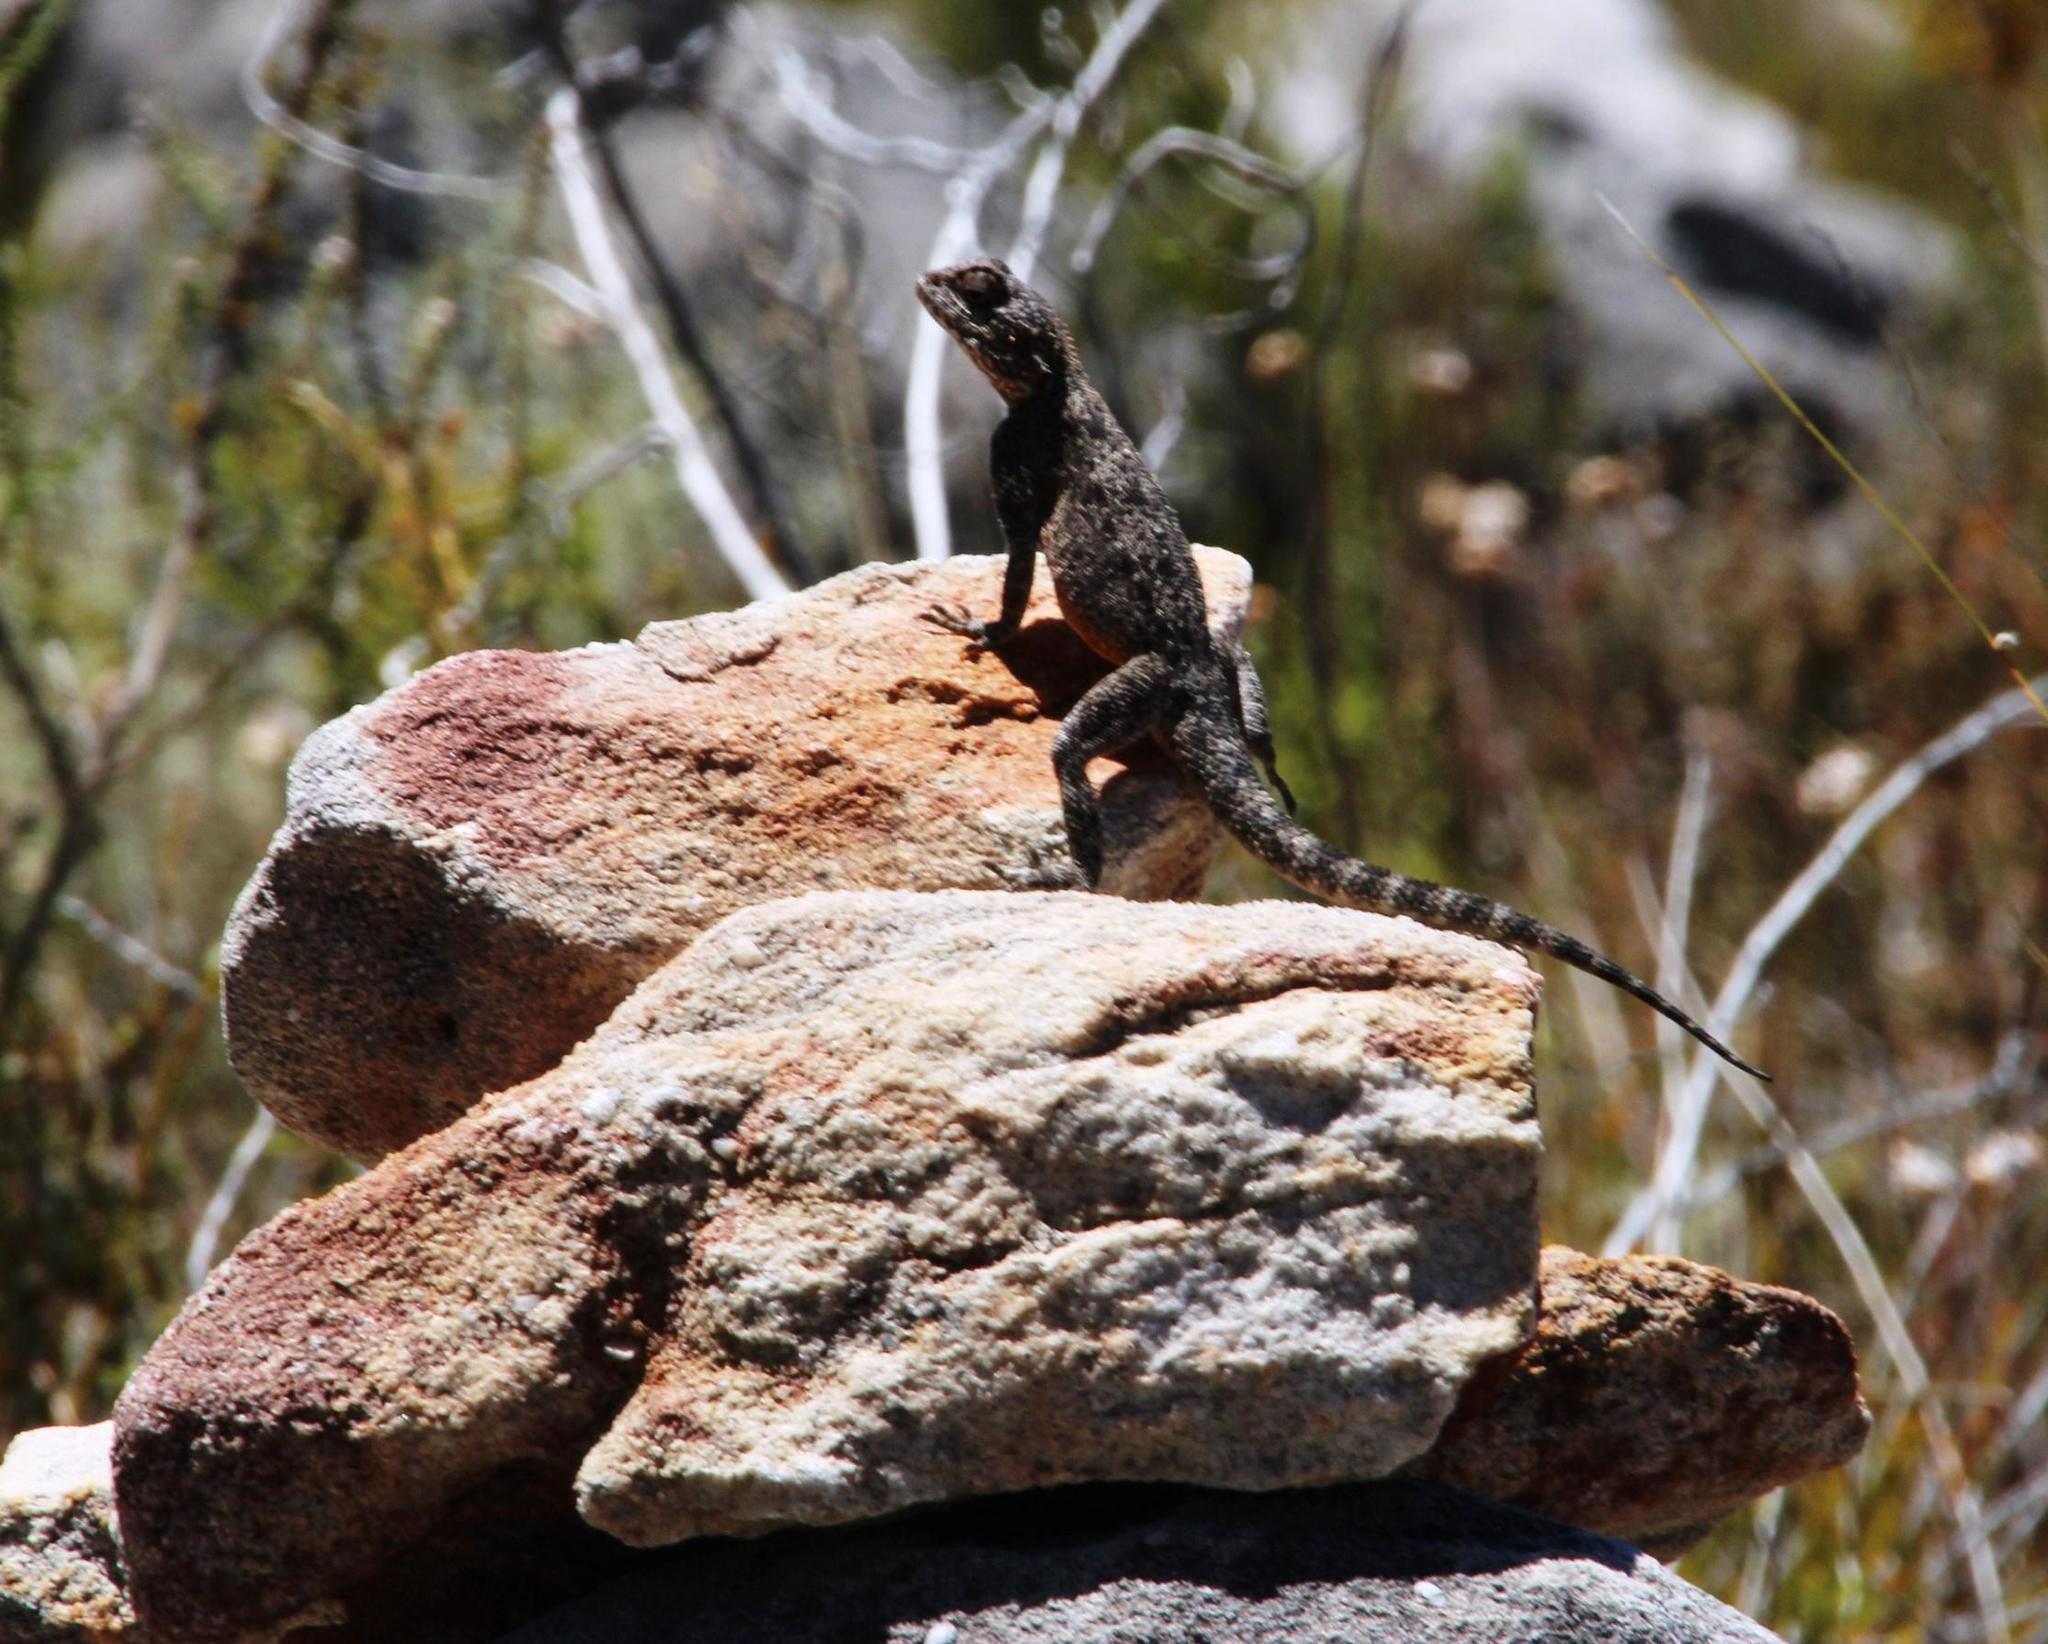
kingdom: Animalia
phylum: Chordata
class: Squamata
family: Agamidae
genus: Agama
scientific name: Agama atra
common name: Southern african rock agama
